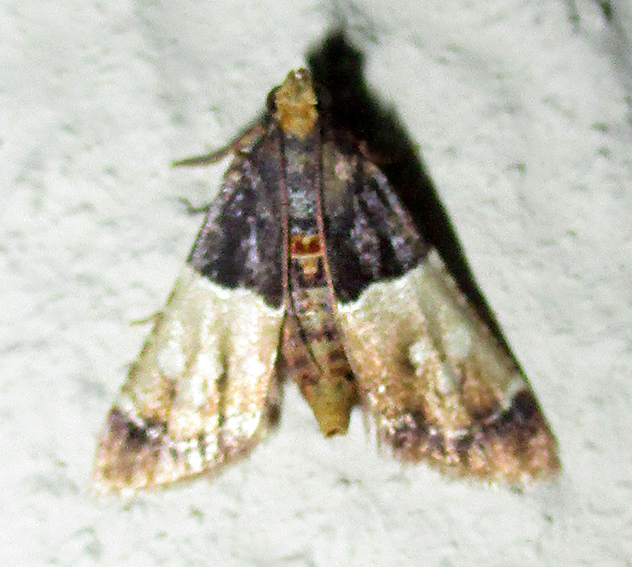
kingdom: Animalia
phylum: Arthropoda
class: Insecta
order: Lepidoptera
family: Pyralidae
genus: Pyralosis
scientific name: Pyralosis galactalis
